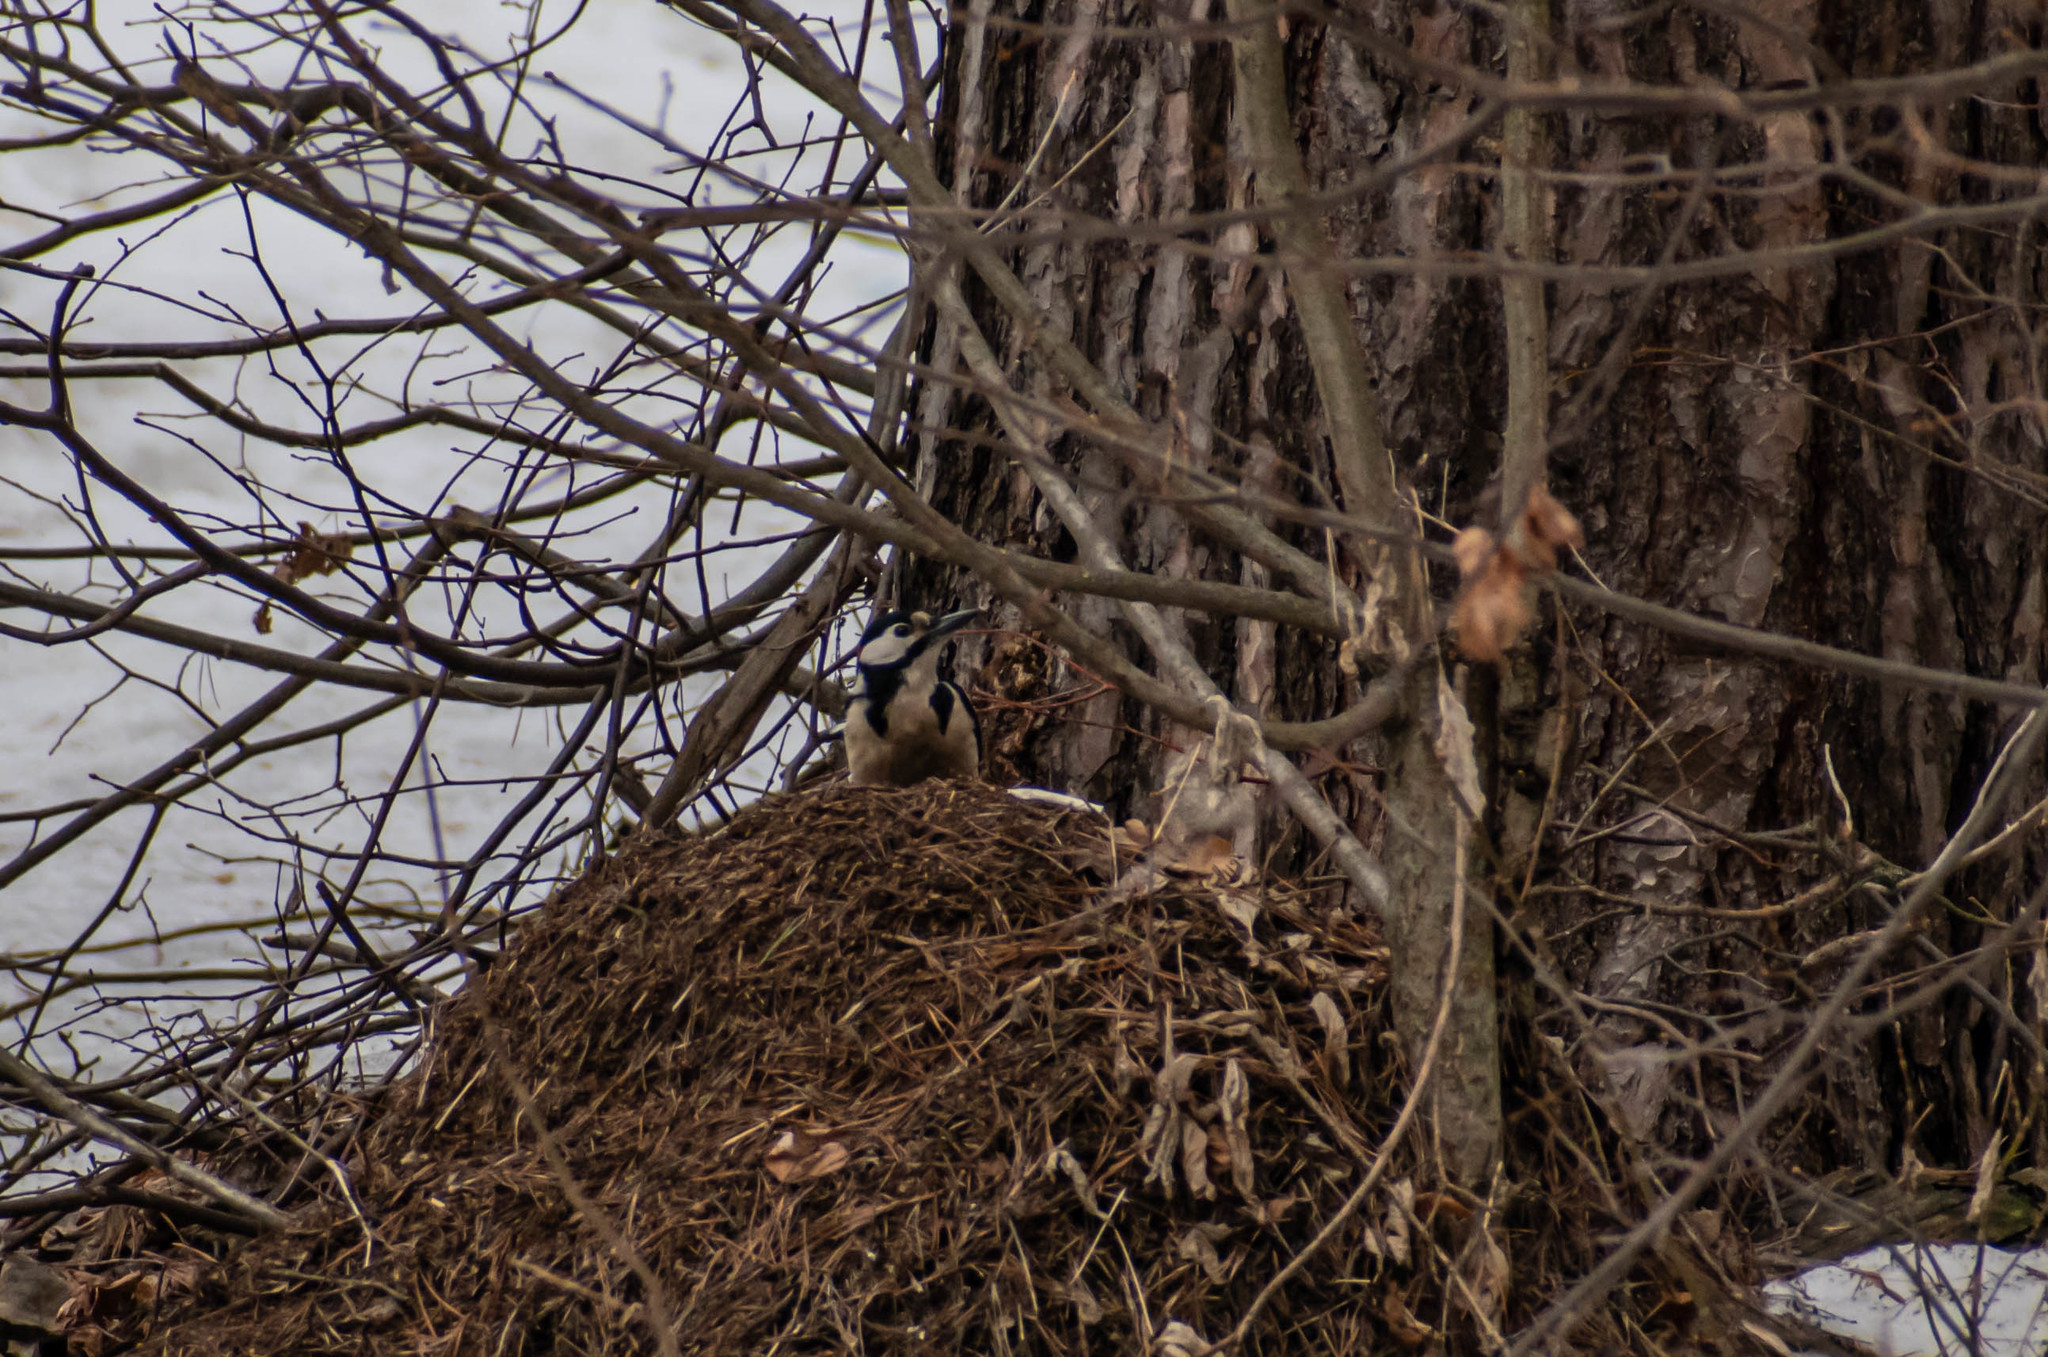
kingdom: Animalia
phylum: Chordata
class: Aves
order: Piciformes
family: Picidae
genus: Dendrocopos
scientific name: Dendrocopos major
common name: Great spotted woodpecker
